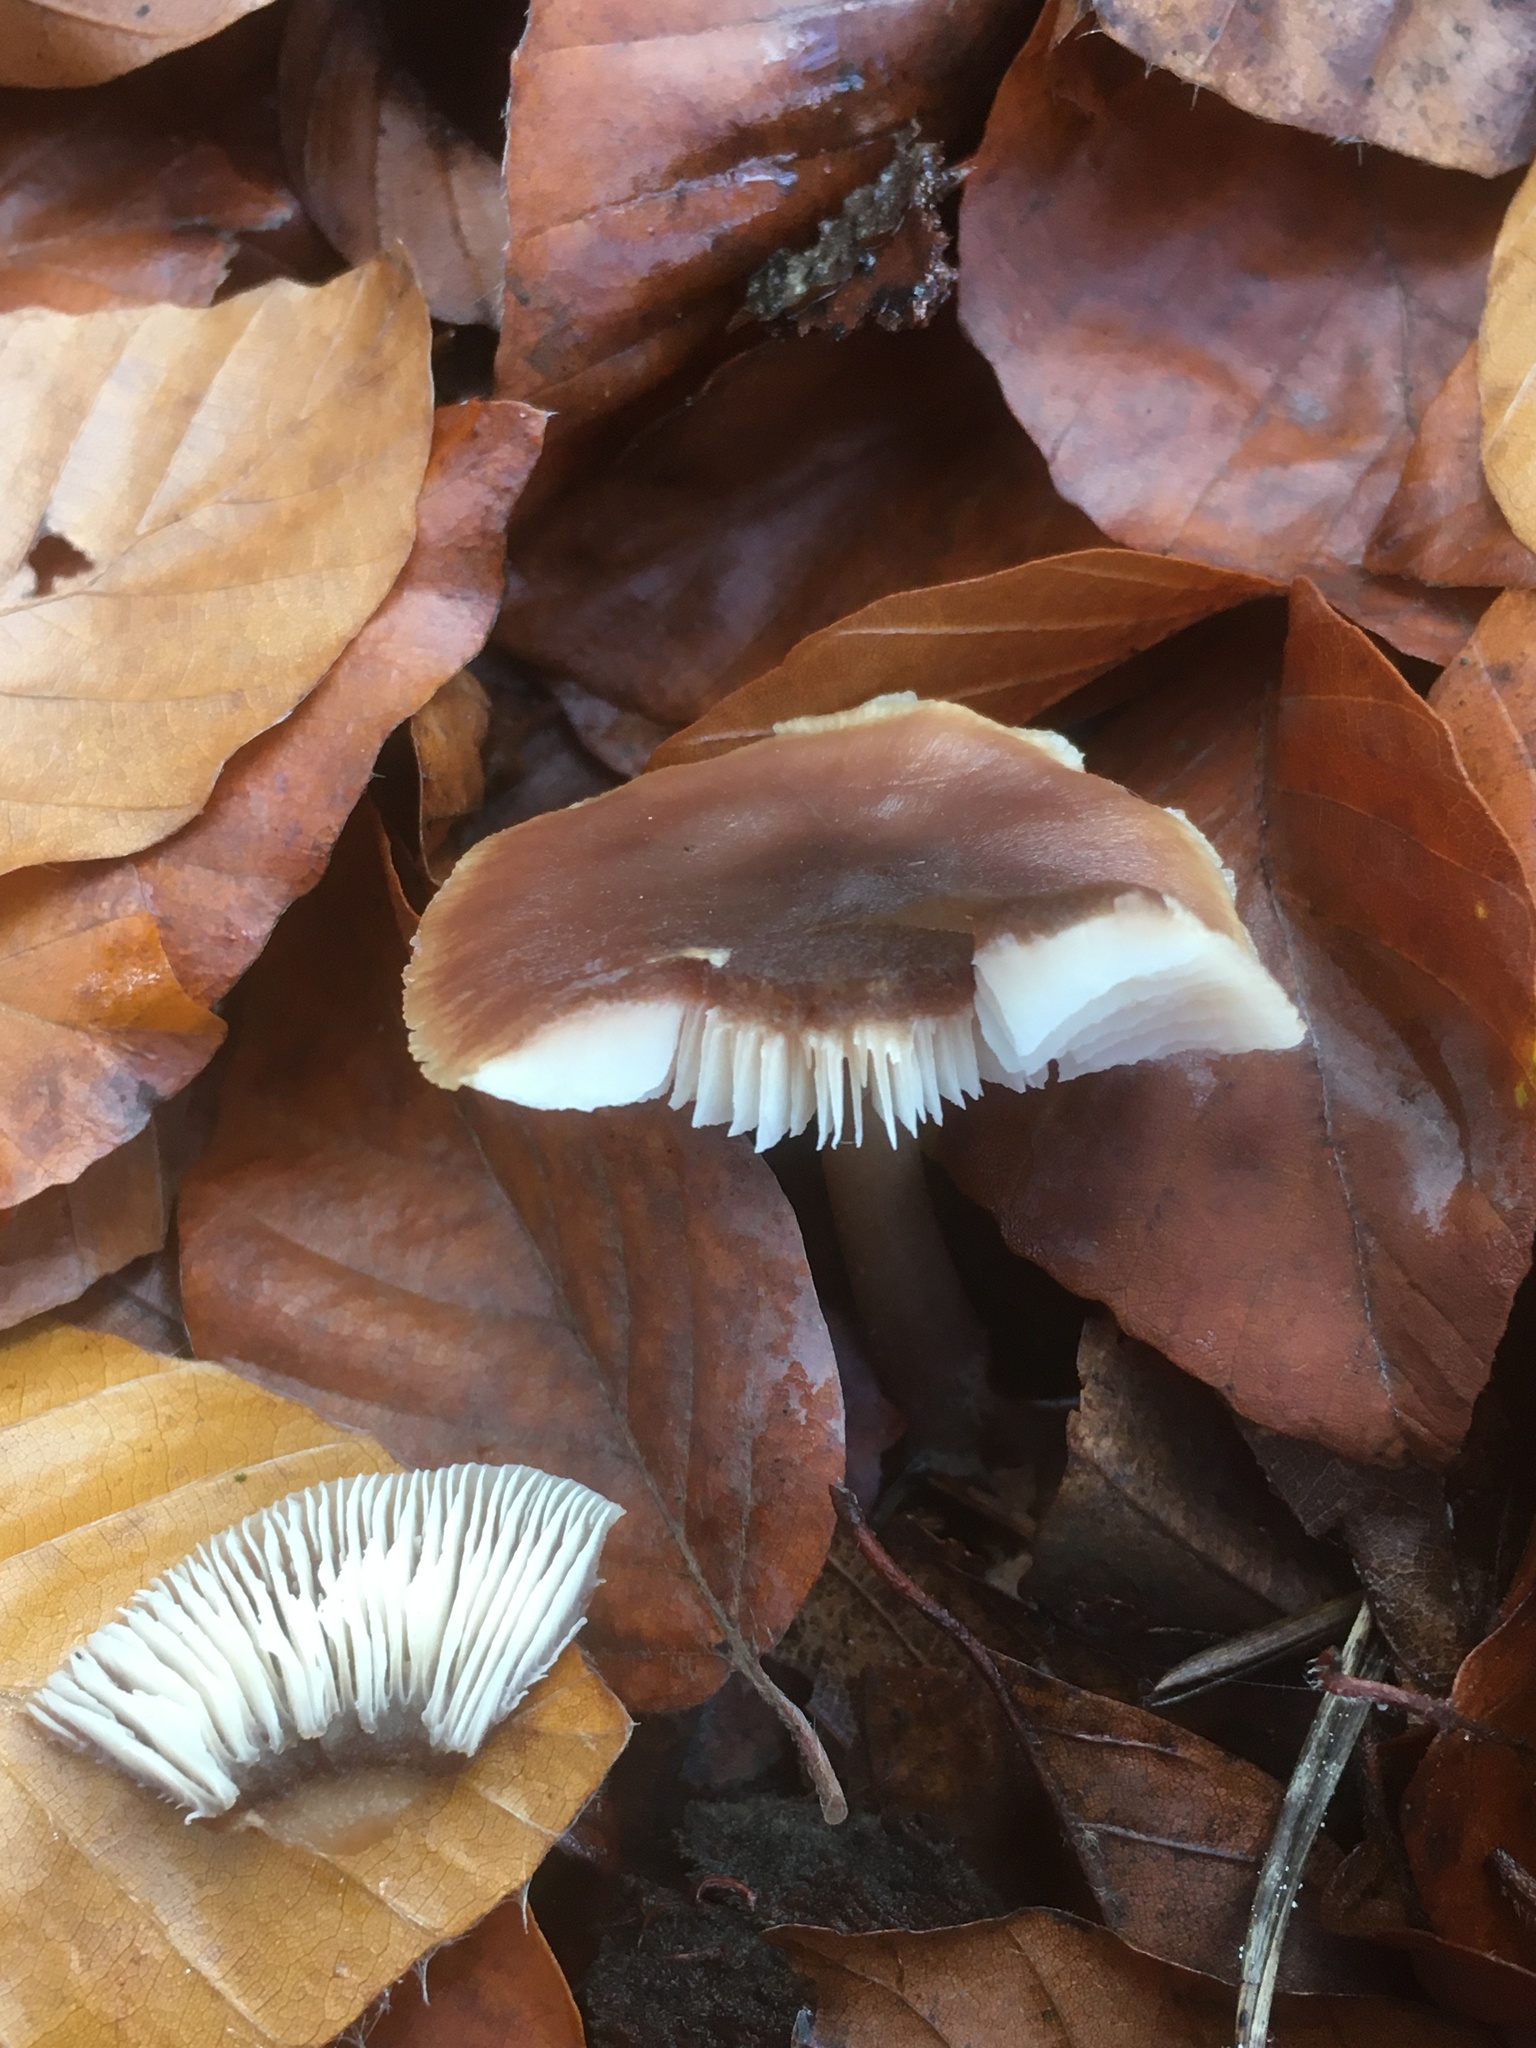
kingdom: Fungi
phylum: Basidiomycota
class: Agaricomycetes
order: Agaricales
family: Omphalotaceae
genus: Rhodocollybia
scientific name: Rhodocollybia butyracea
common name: Butter cap
